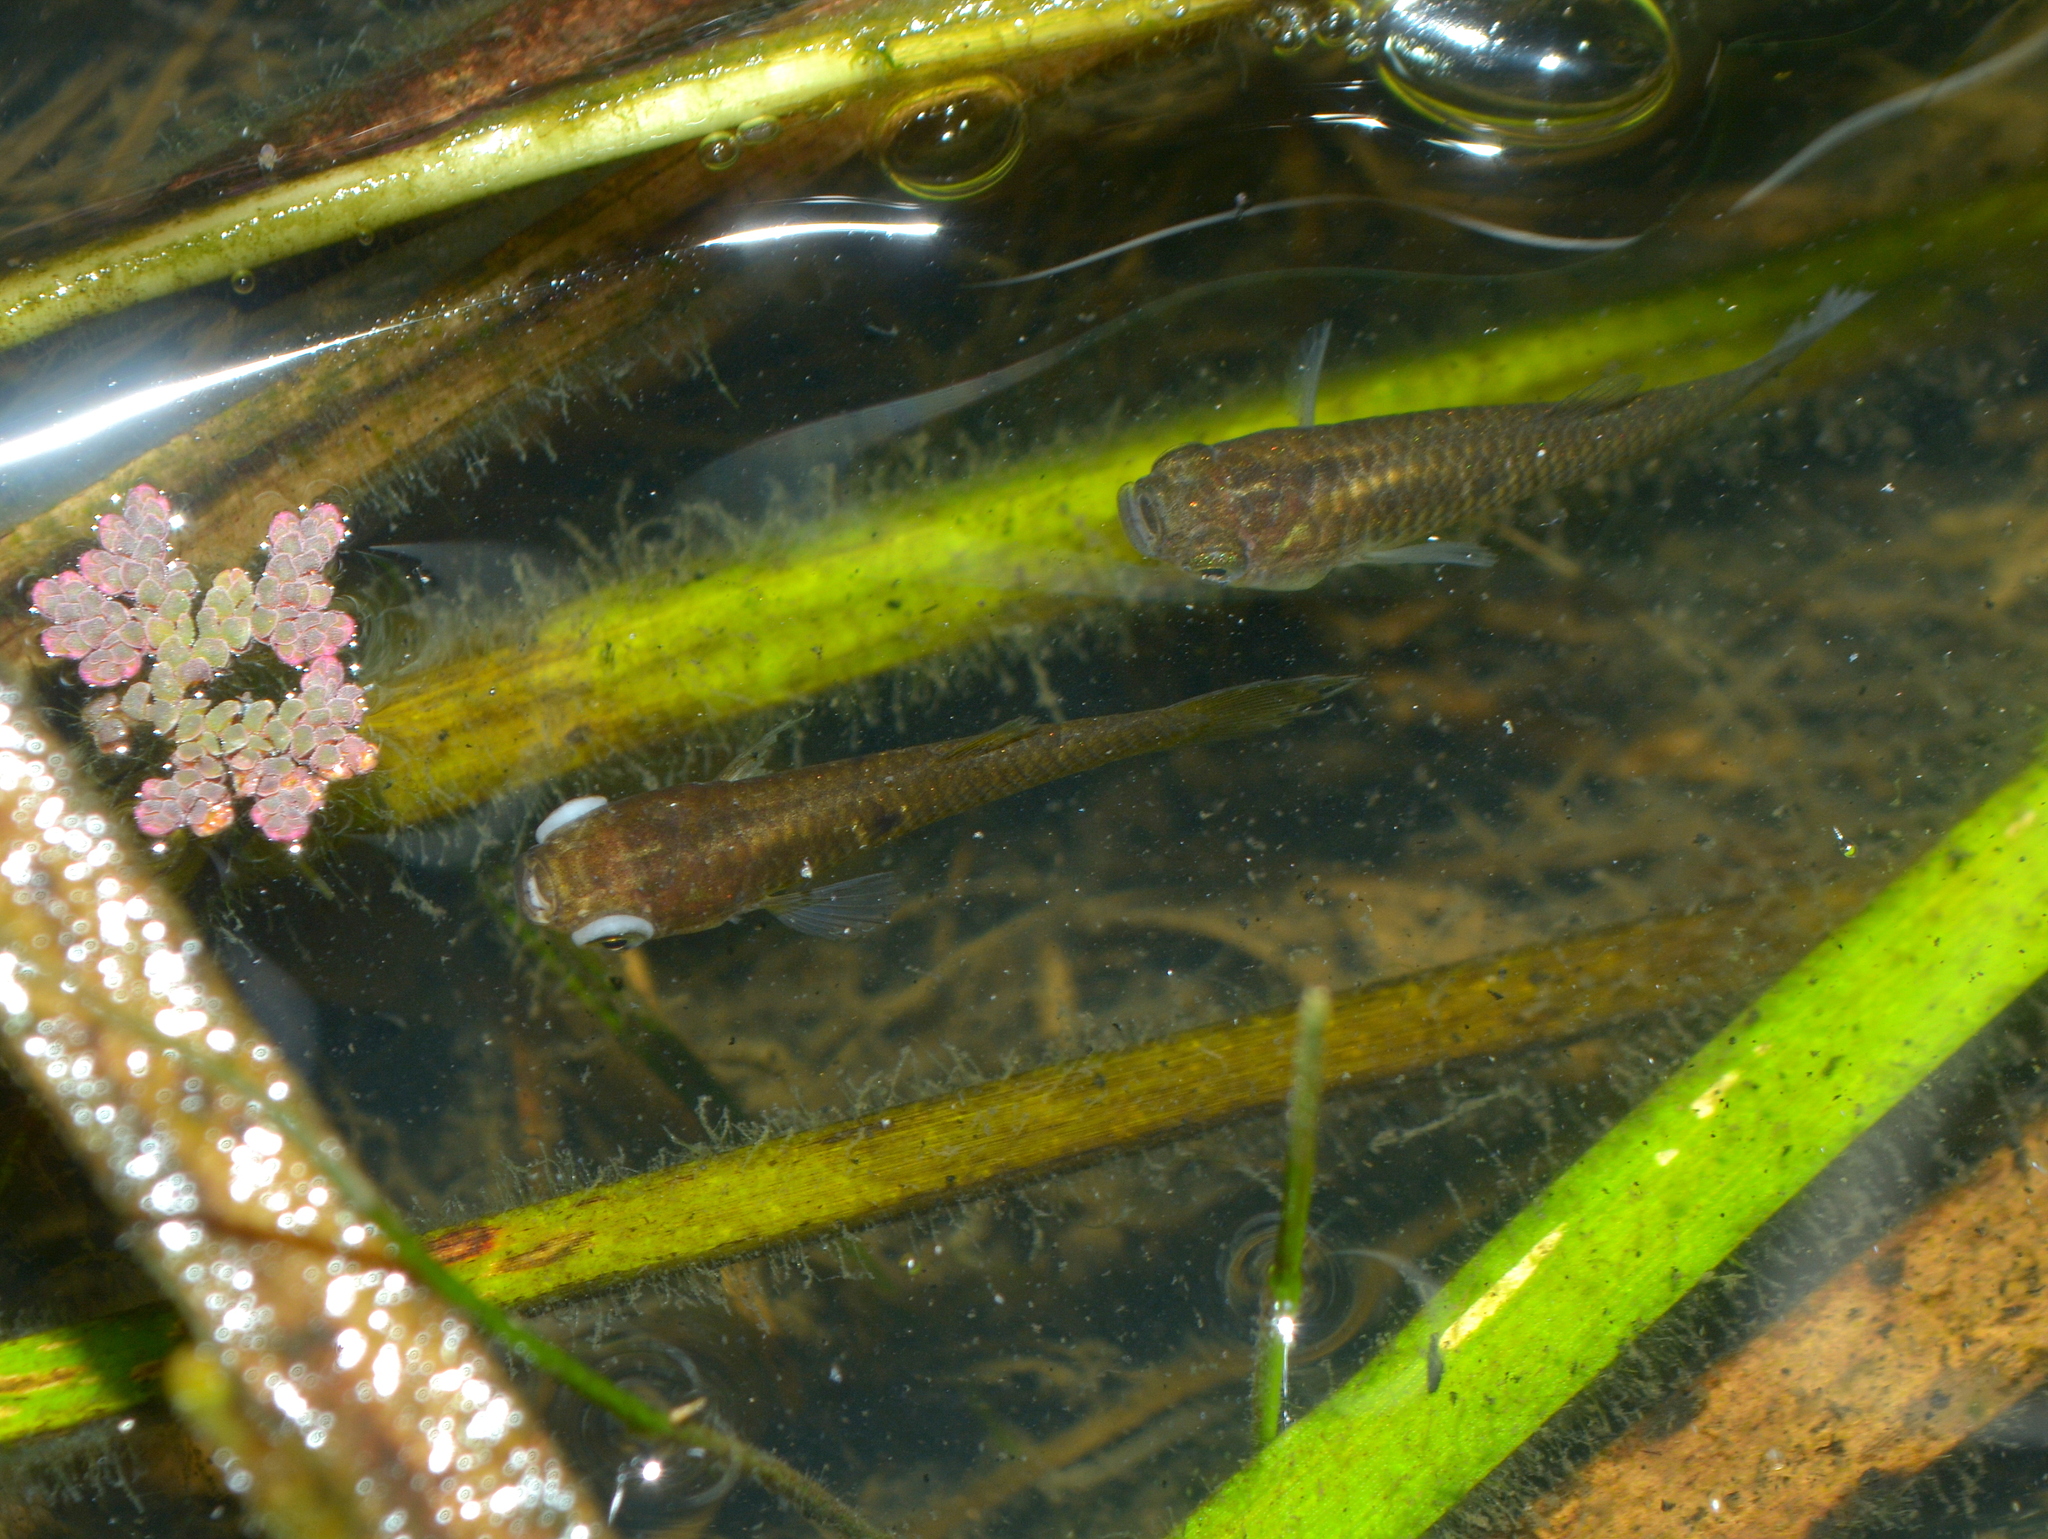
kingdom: Animalia
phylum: Chordata
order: Cyprinodontiformes
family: Anablepidae
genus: Jenynsia
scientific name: Jenynsia lineata
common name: Onesided livebearer
